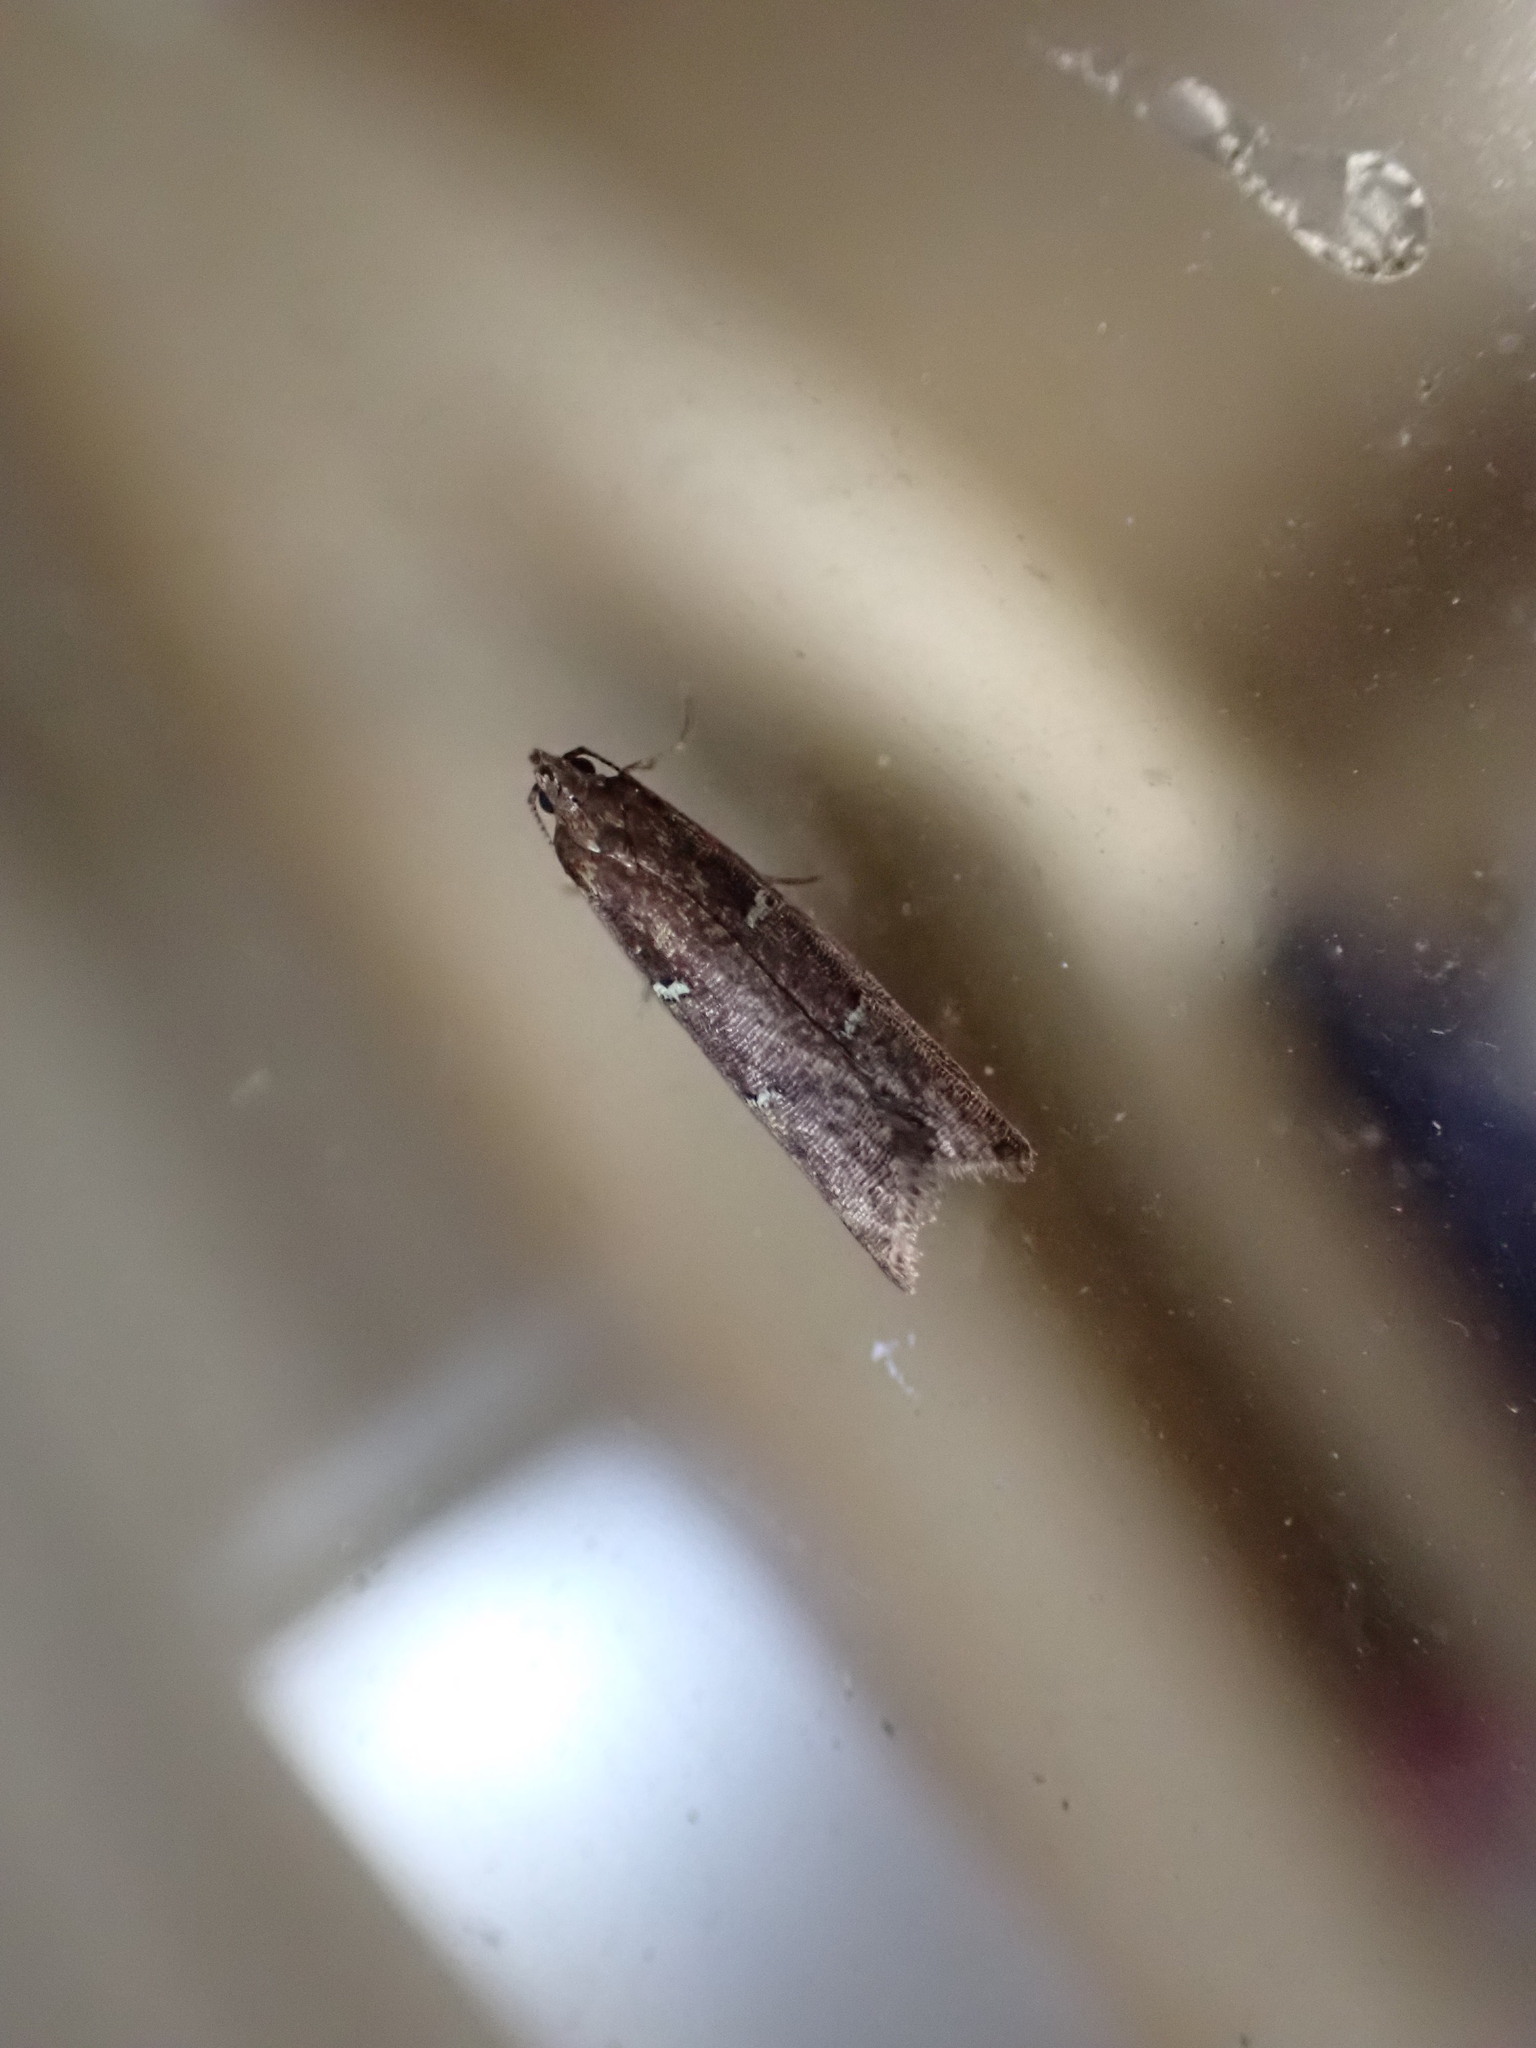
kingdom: Animalia
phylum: Arthropoda
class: Insecta
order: Lepidoptera
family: Plutellidae
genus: Cadmogenes
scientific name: Cadmogenes literata
